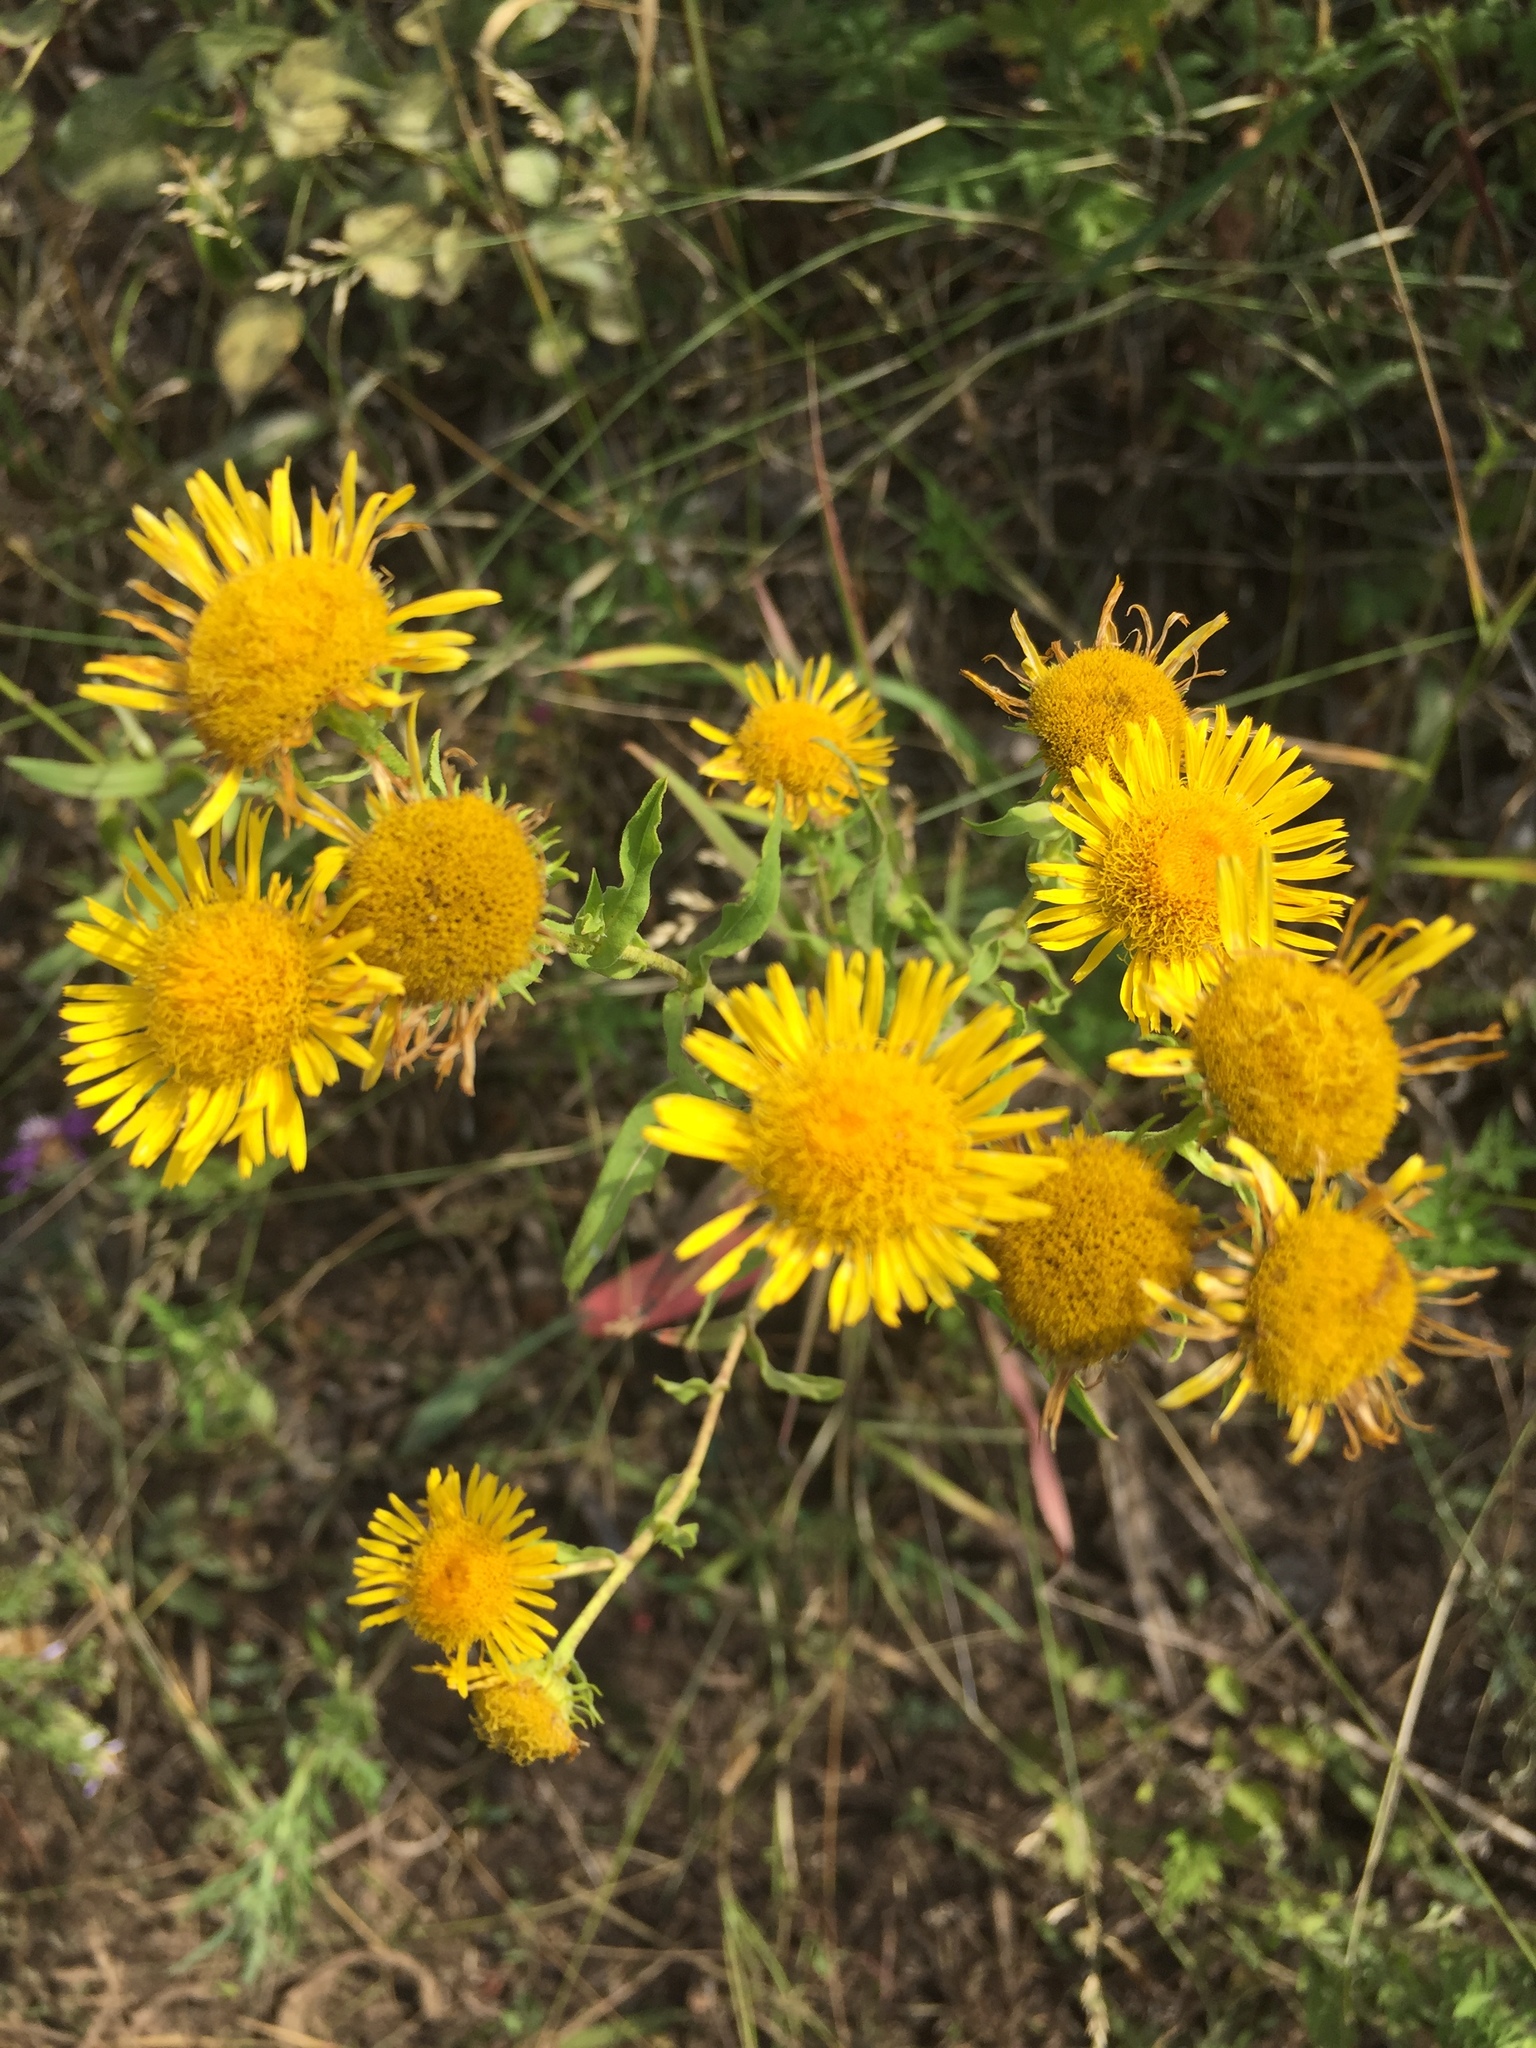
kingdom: Plantae
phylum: Tracheophyta
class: Magnoliopsida
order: Asterales
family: Asteraceae
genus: Pentanema
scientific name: Pentanema britannicum
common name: British elecampane
